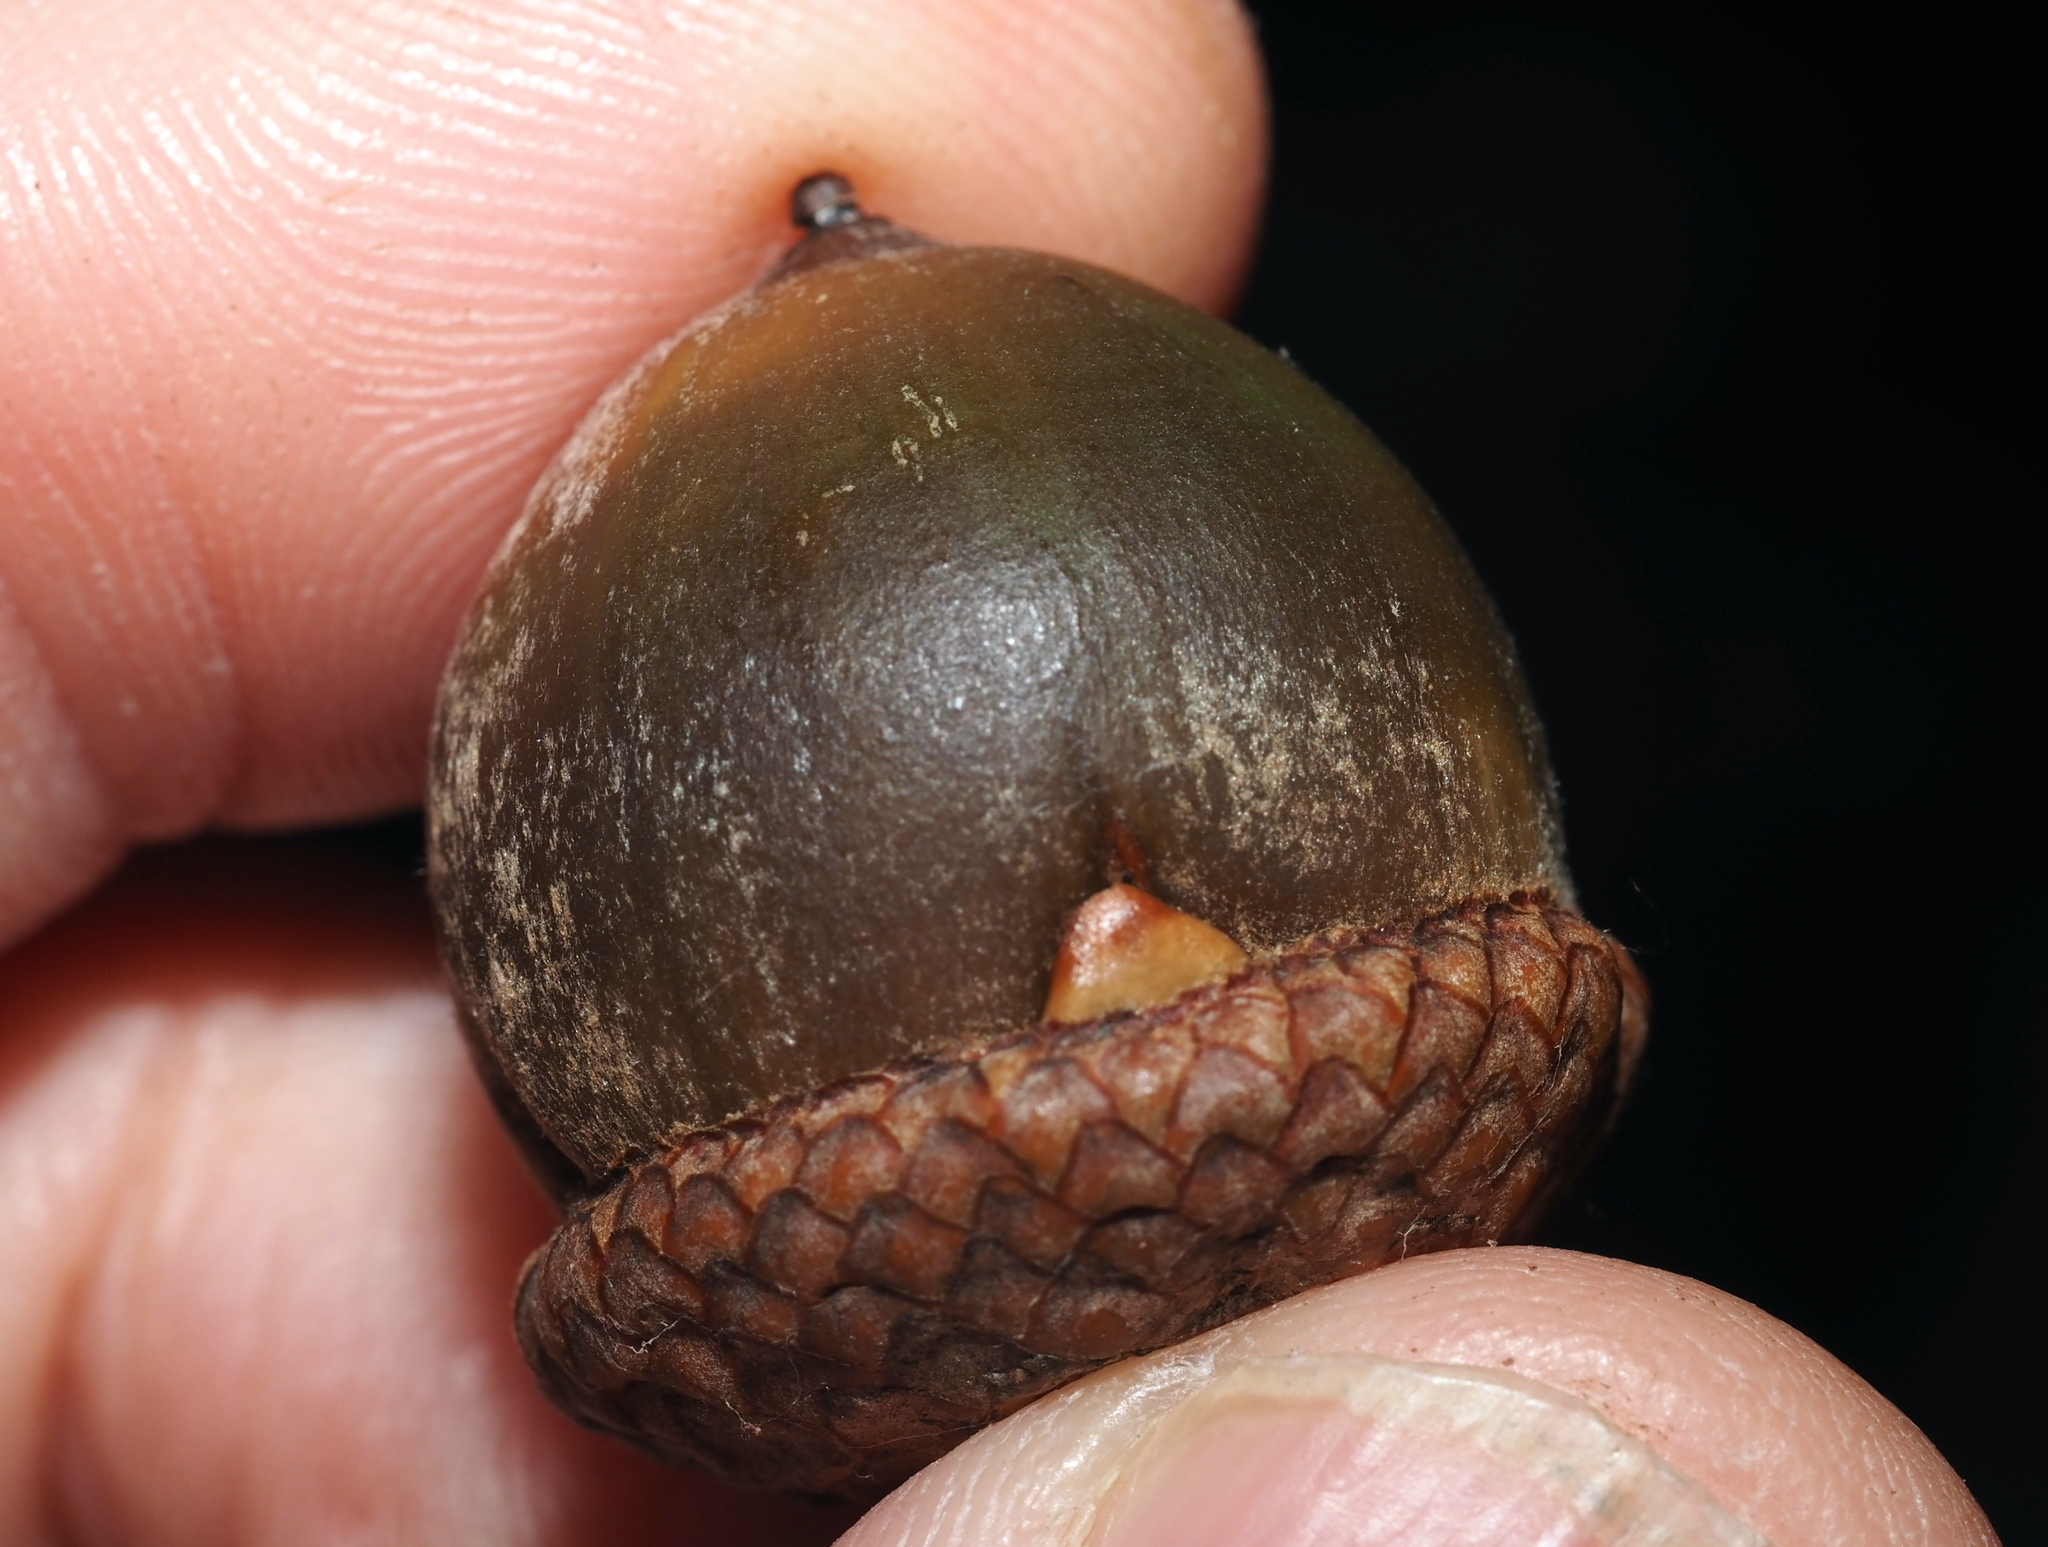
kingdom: Animalia
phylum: Arthropoda
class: Insecta
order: Hymenoptera
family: Cynipidae
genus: Callirhytis
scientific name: Callirhytis
